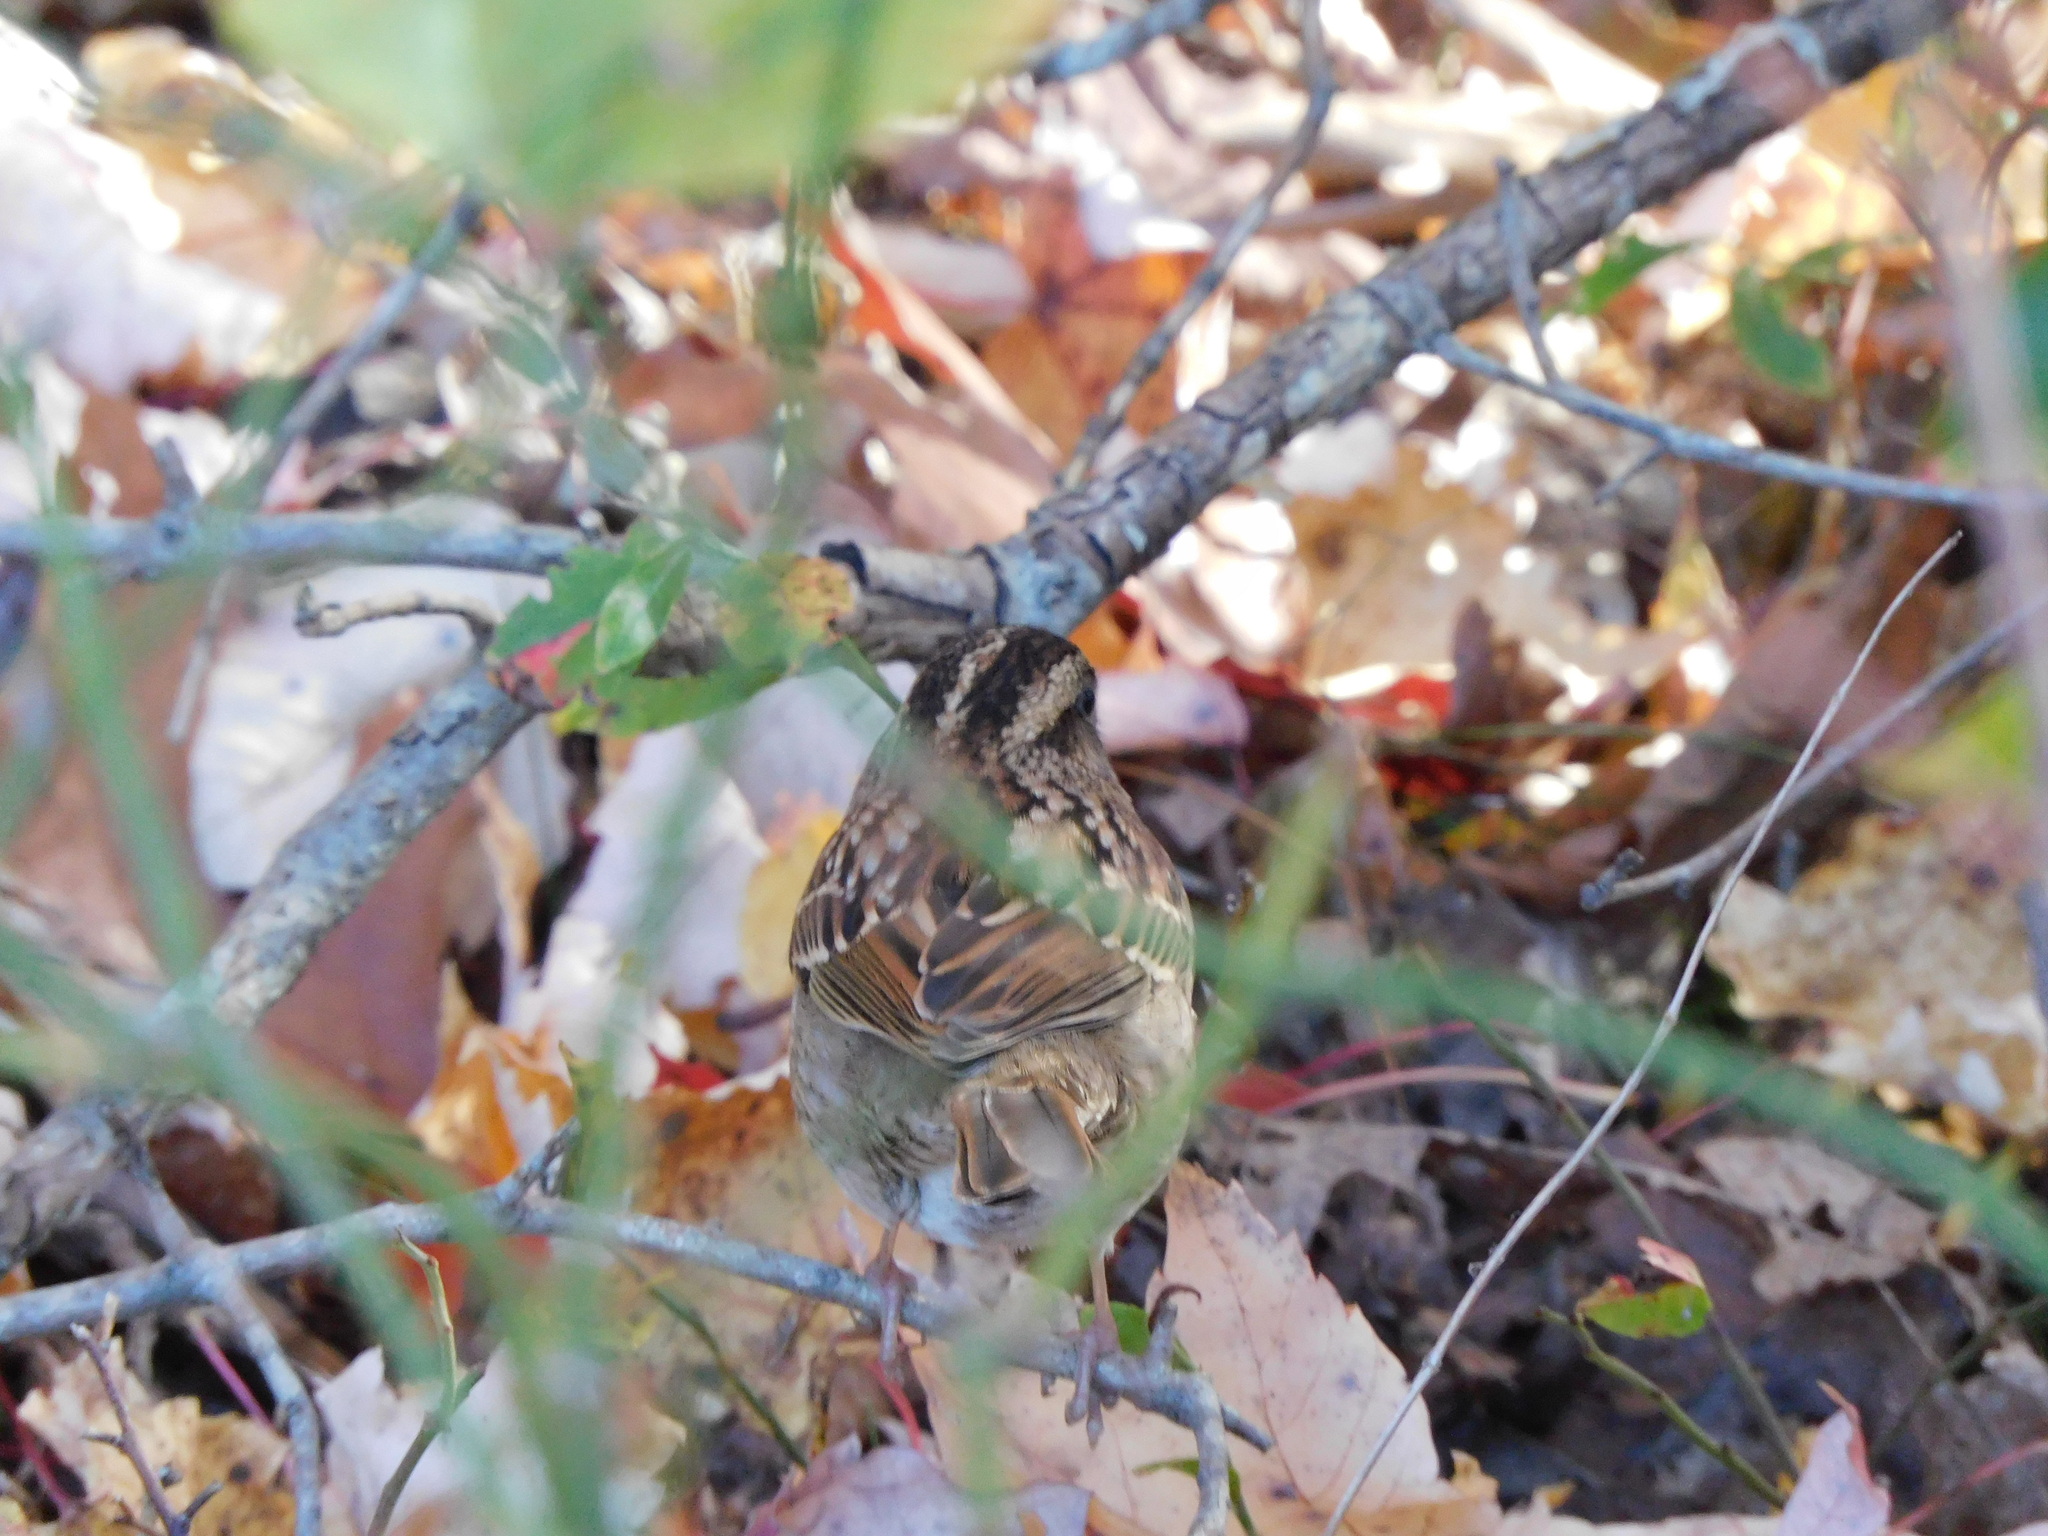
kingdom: Animalia
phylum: Chordata
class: Aves
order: Passeriformes
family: Passerellidae
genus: Zonotrichia
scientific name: Zonotrichia albicollis
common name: White-throated sparrow
